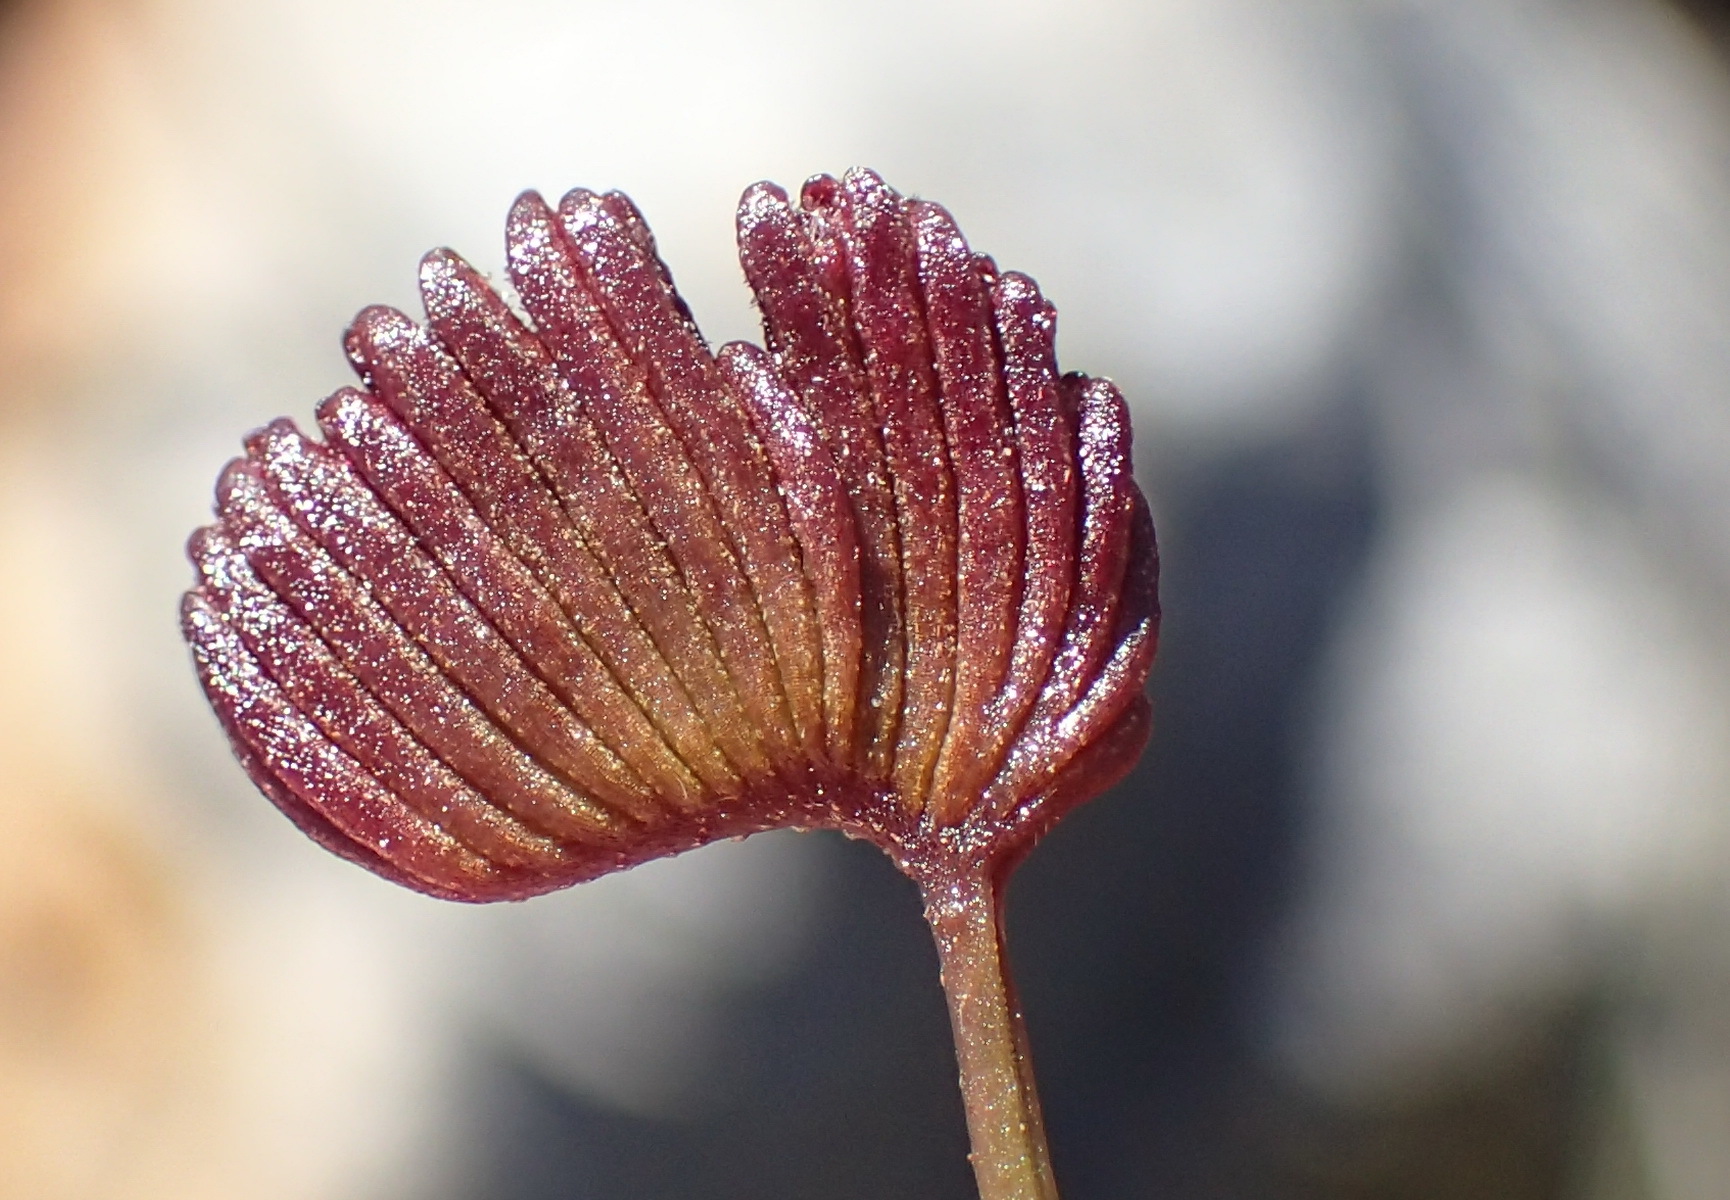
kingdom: Plantae
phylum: Tracheophyta
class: Polypodiopsida
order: Schizaeales
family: Schizaeaceae
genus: Schizaea
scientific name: Schizaea pectinata
